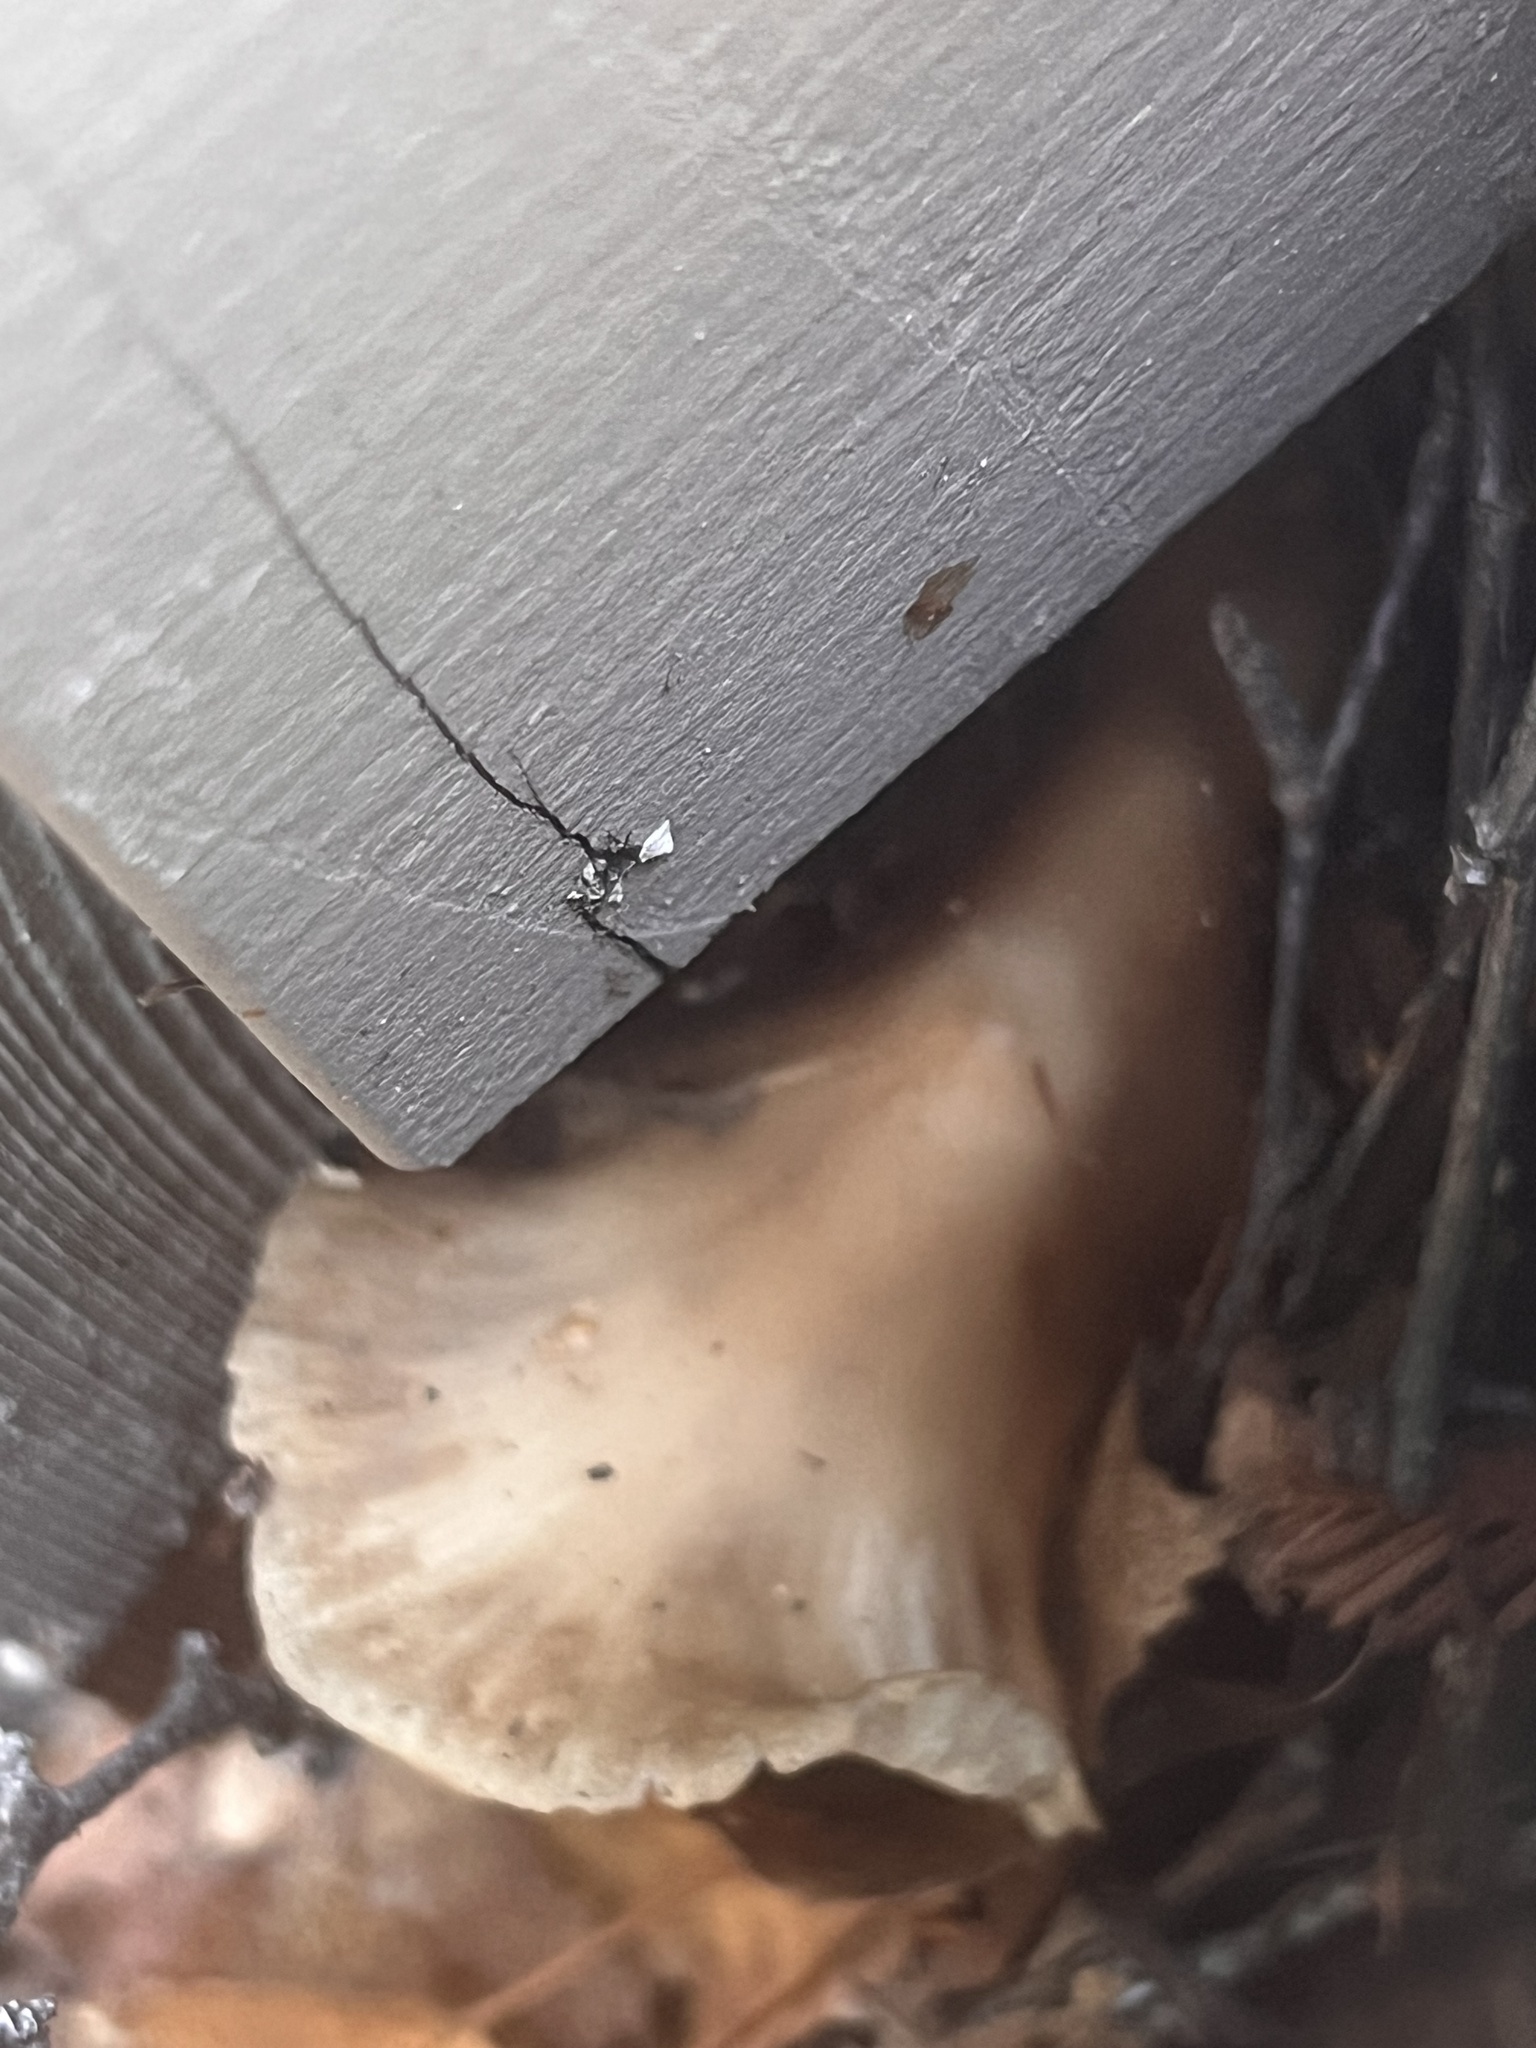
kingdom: Fungi
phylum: Basidiomycota
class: Agaricomycetes
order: Agaricales
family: Tricholomataceae
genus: Caulorhiza
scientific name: Caulorhiza umbonata
